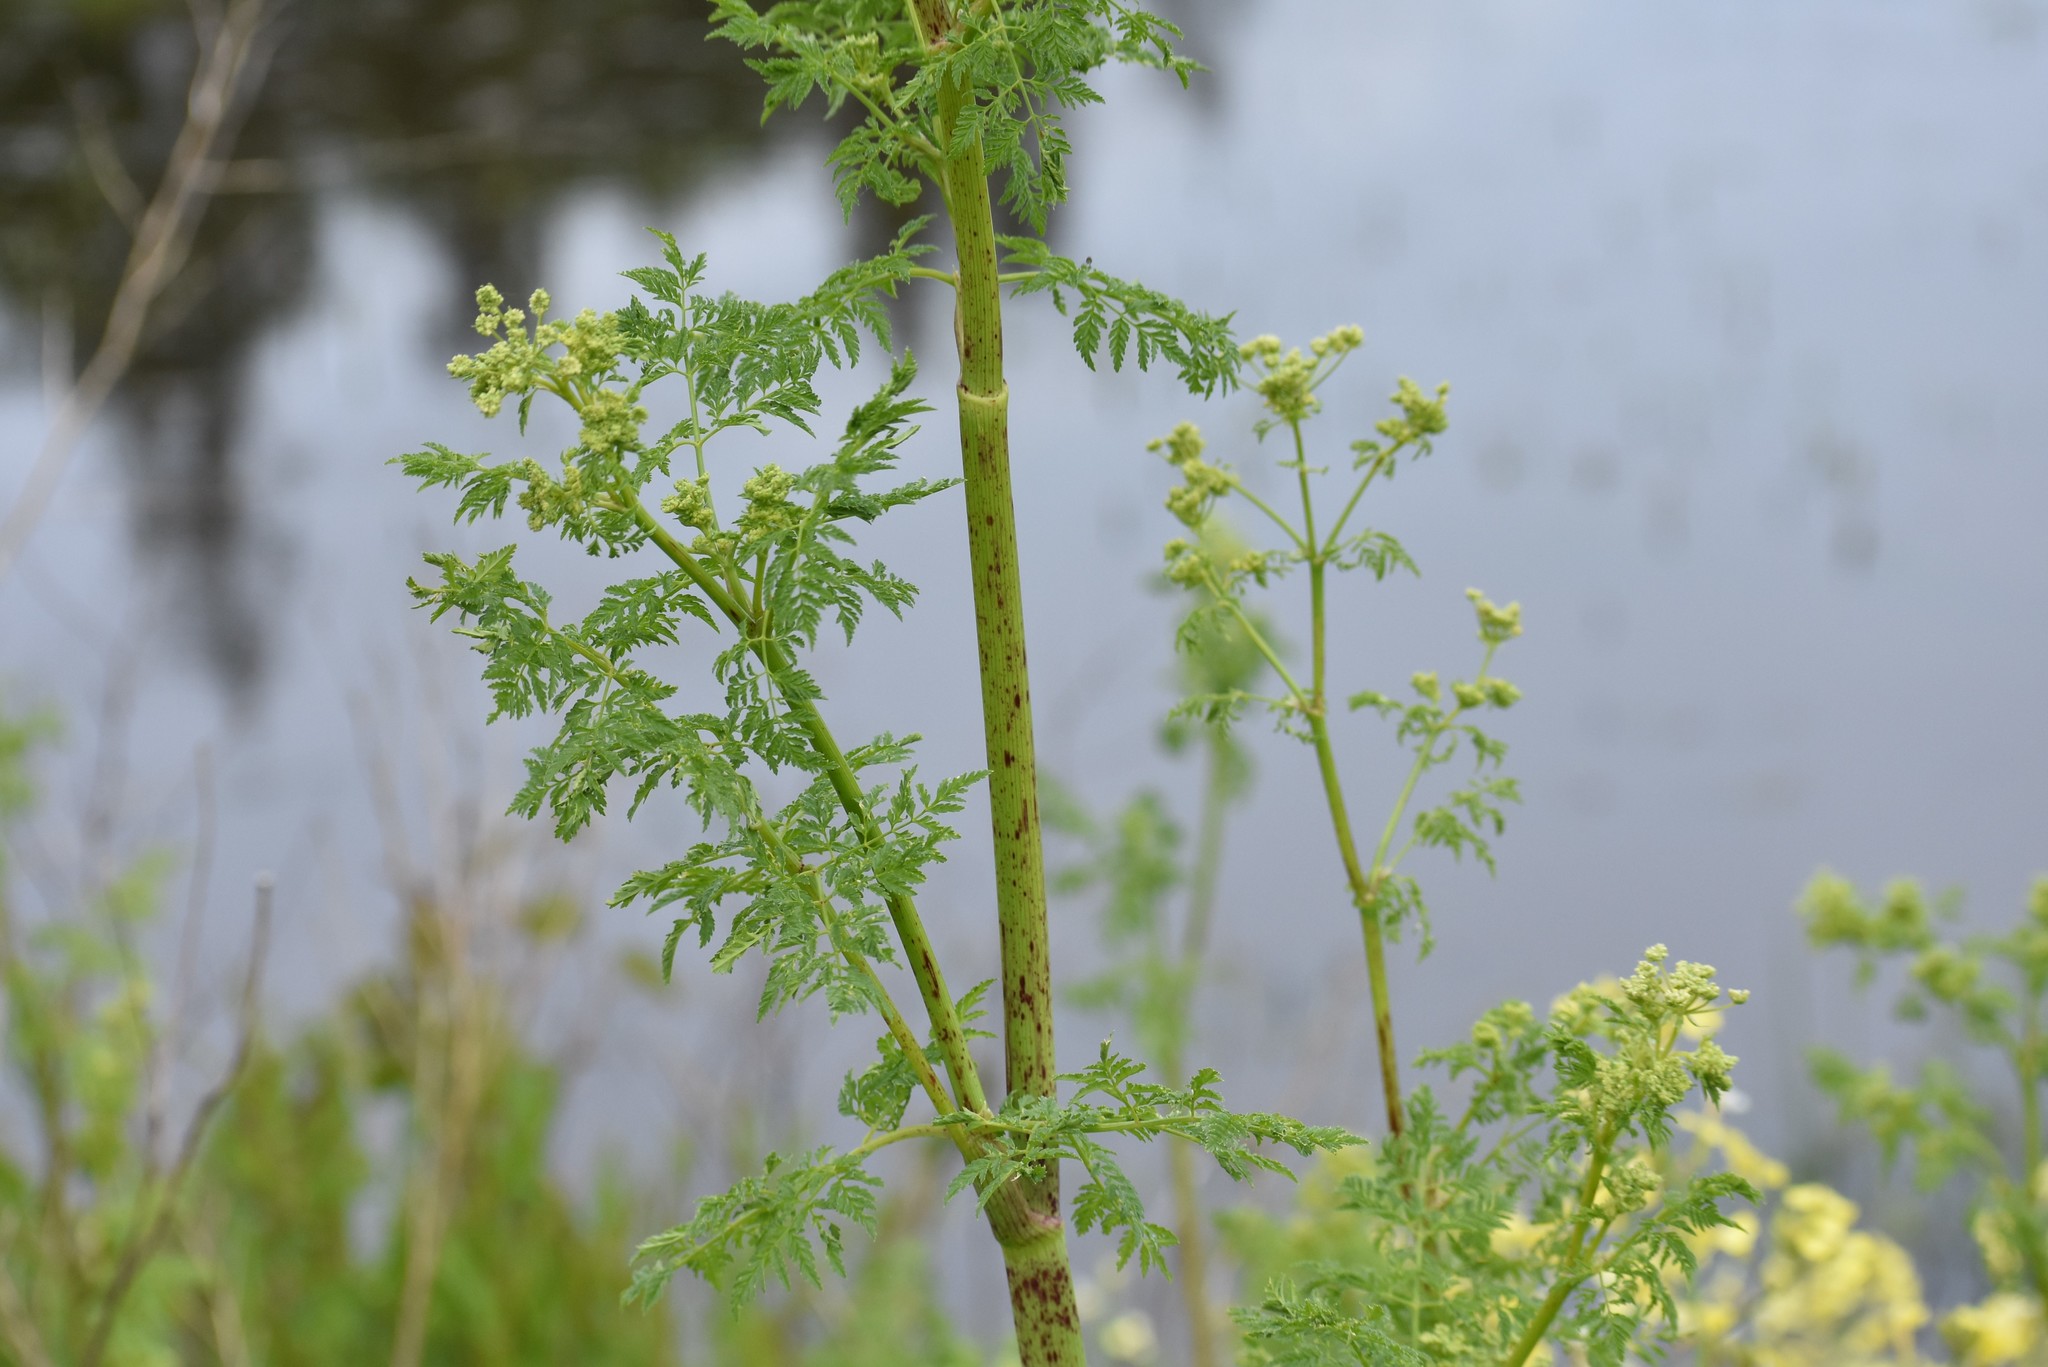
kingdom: Plantae
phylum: Tracheophyta
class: Magnoliopsida
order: Apiales
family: Apiaceae
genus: Conium
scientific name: Conium maculatum
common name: Hemlock
